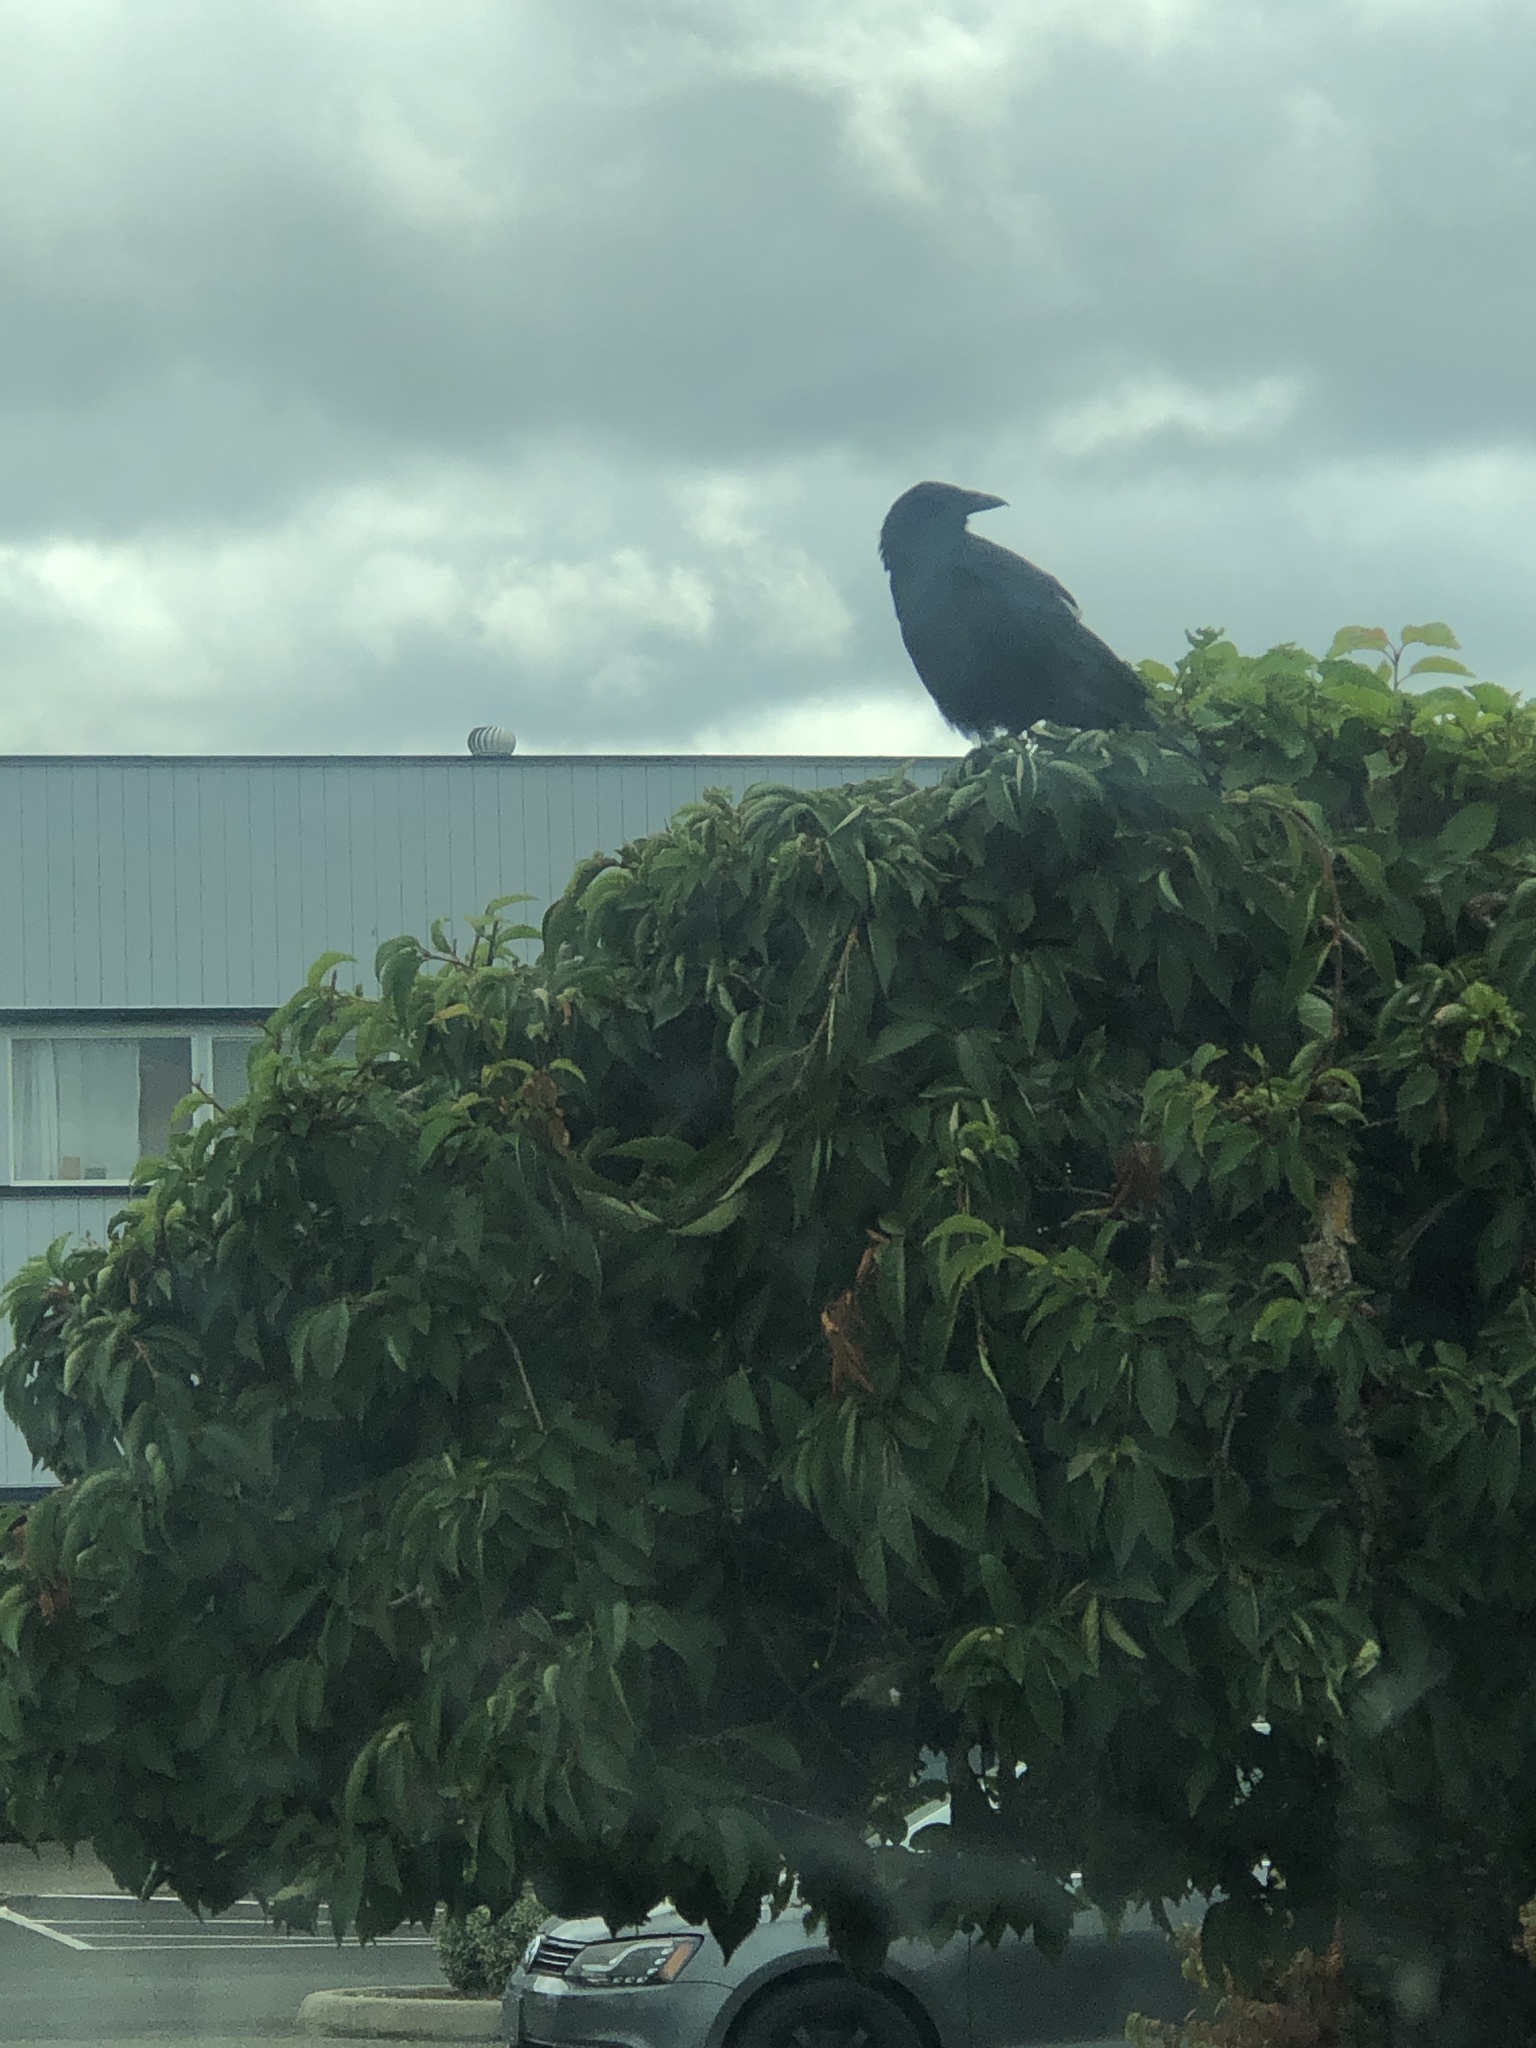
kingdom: Animalia
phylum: Chordata
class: Aves
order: Passeriformes
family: Corvidae
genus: Corvus
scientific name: Corvus brachyrhynchos
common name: American crow
